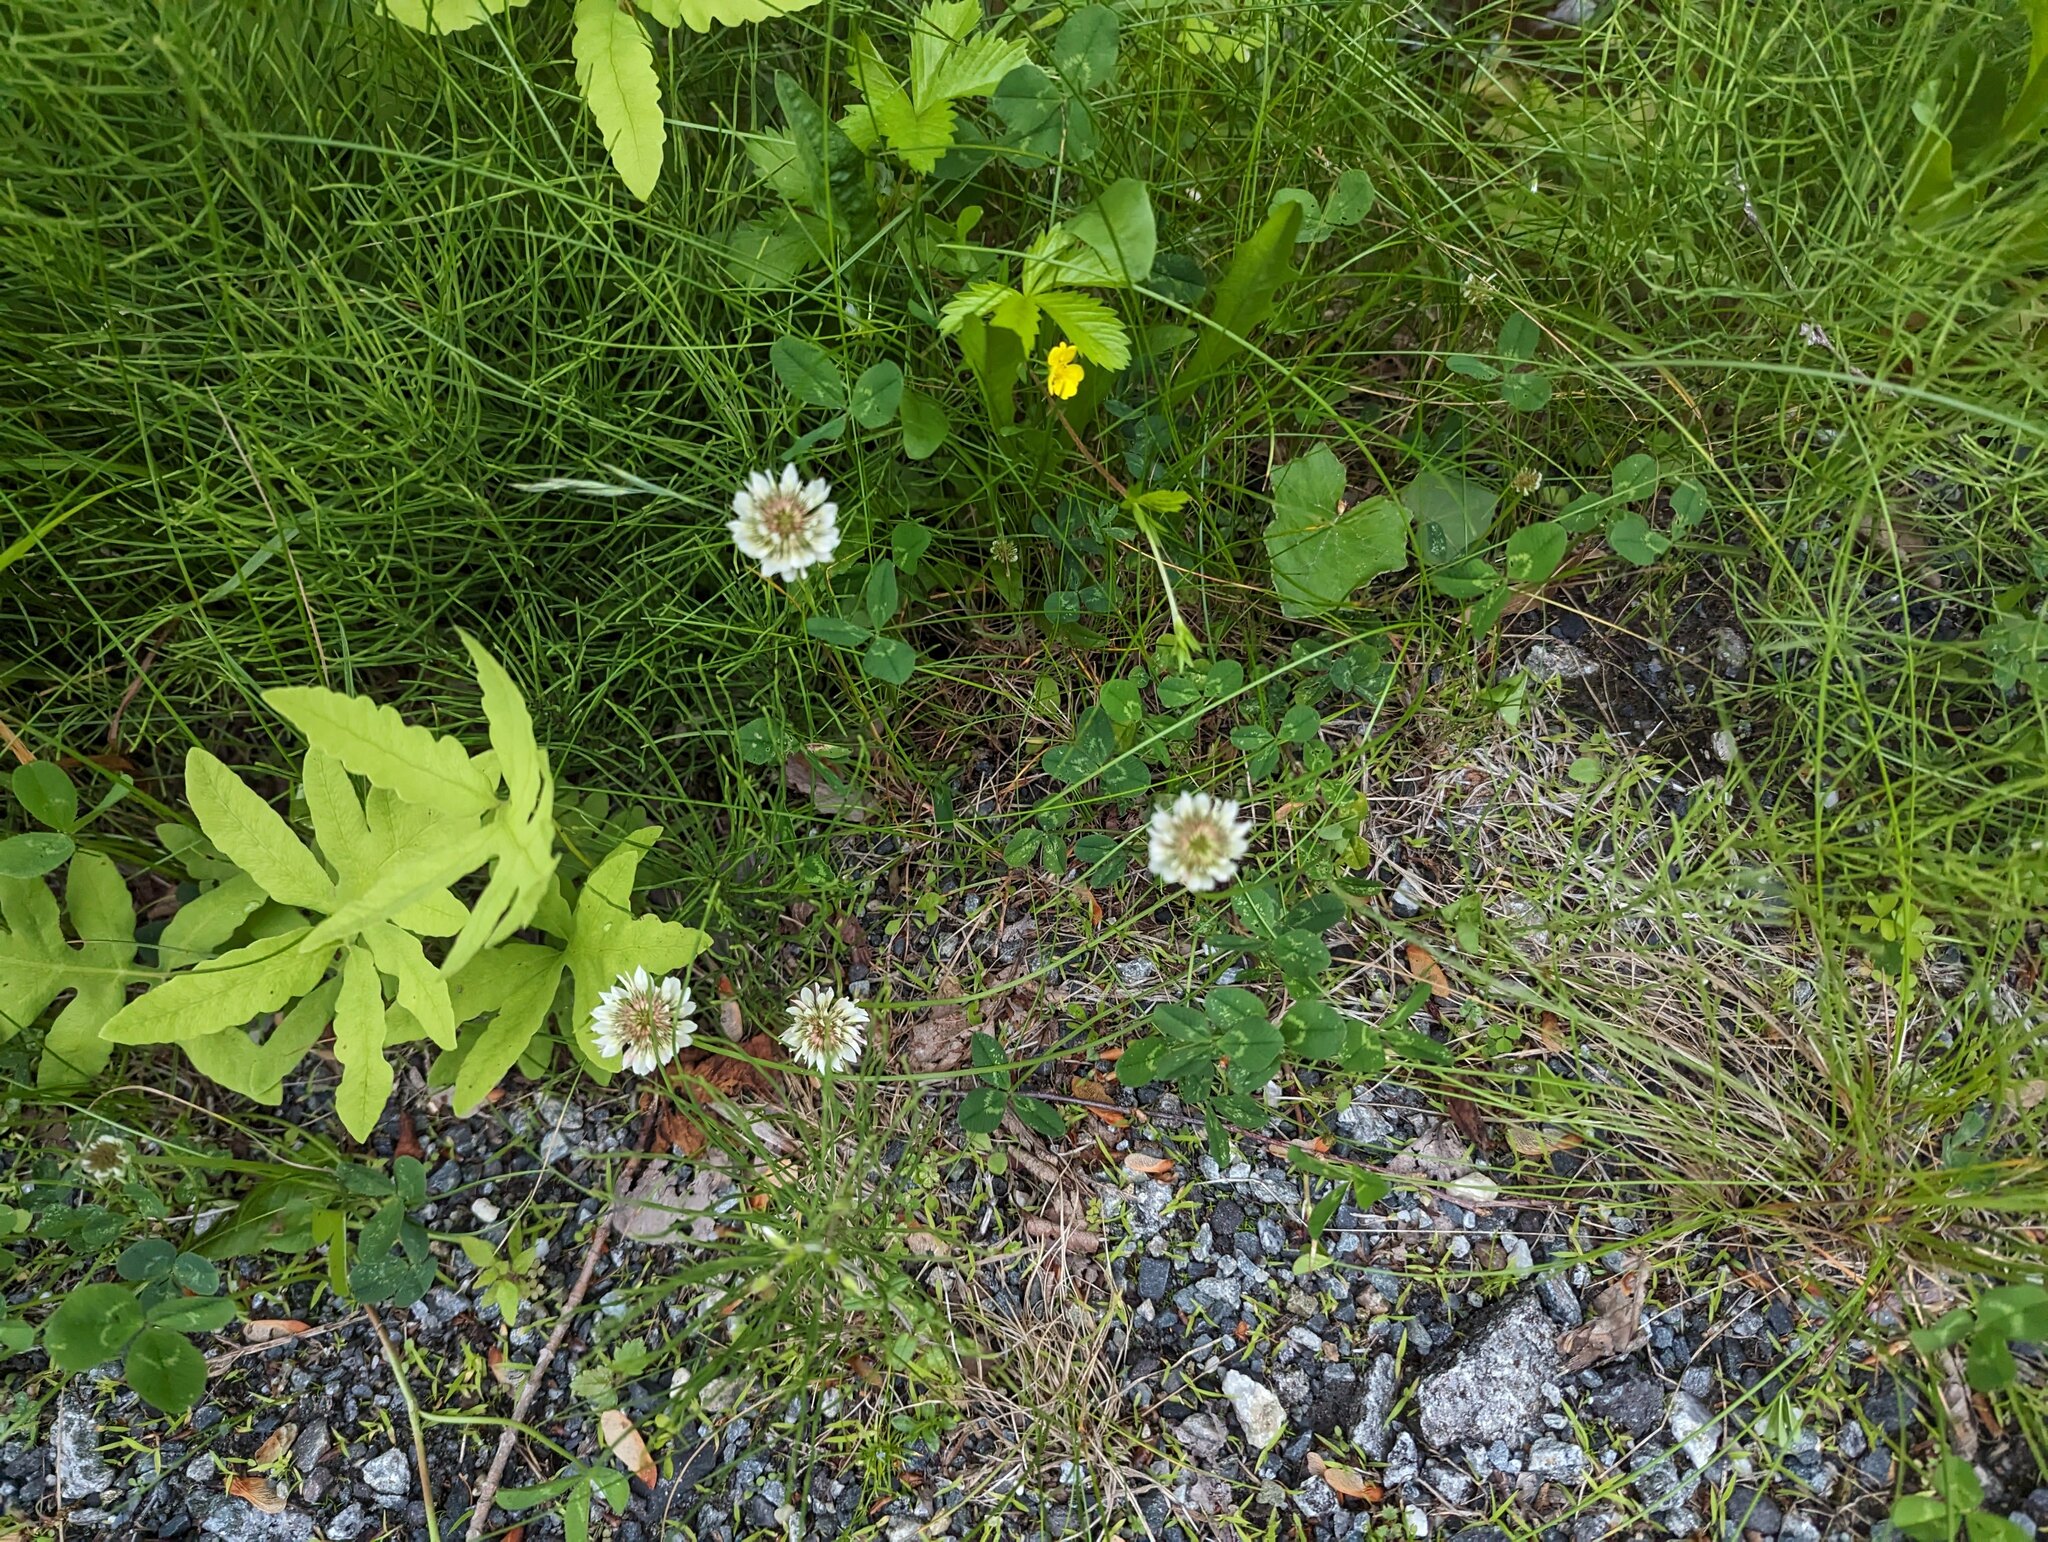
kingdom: Plantae
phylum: Tracheophyta
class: Magnoliopsida
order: Fabales
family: Fabaceae
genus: Trifolium
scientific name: Trifolium repens
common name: White clover
